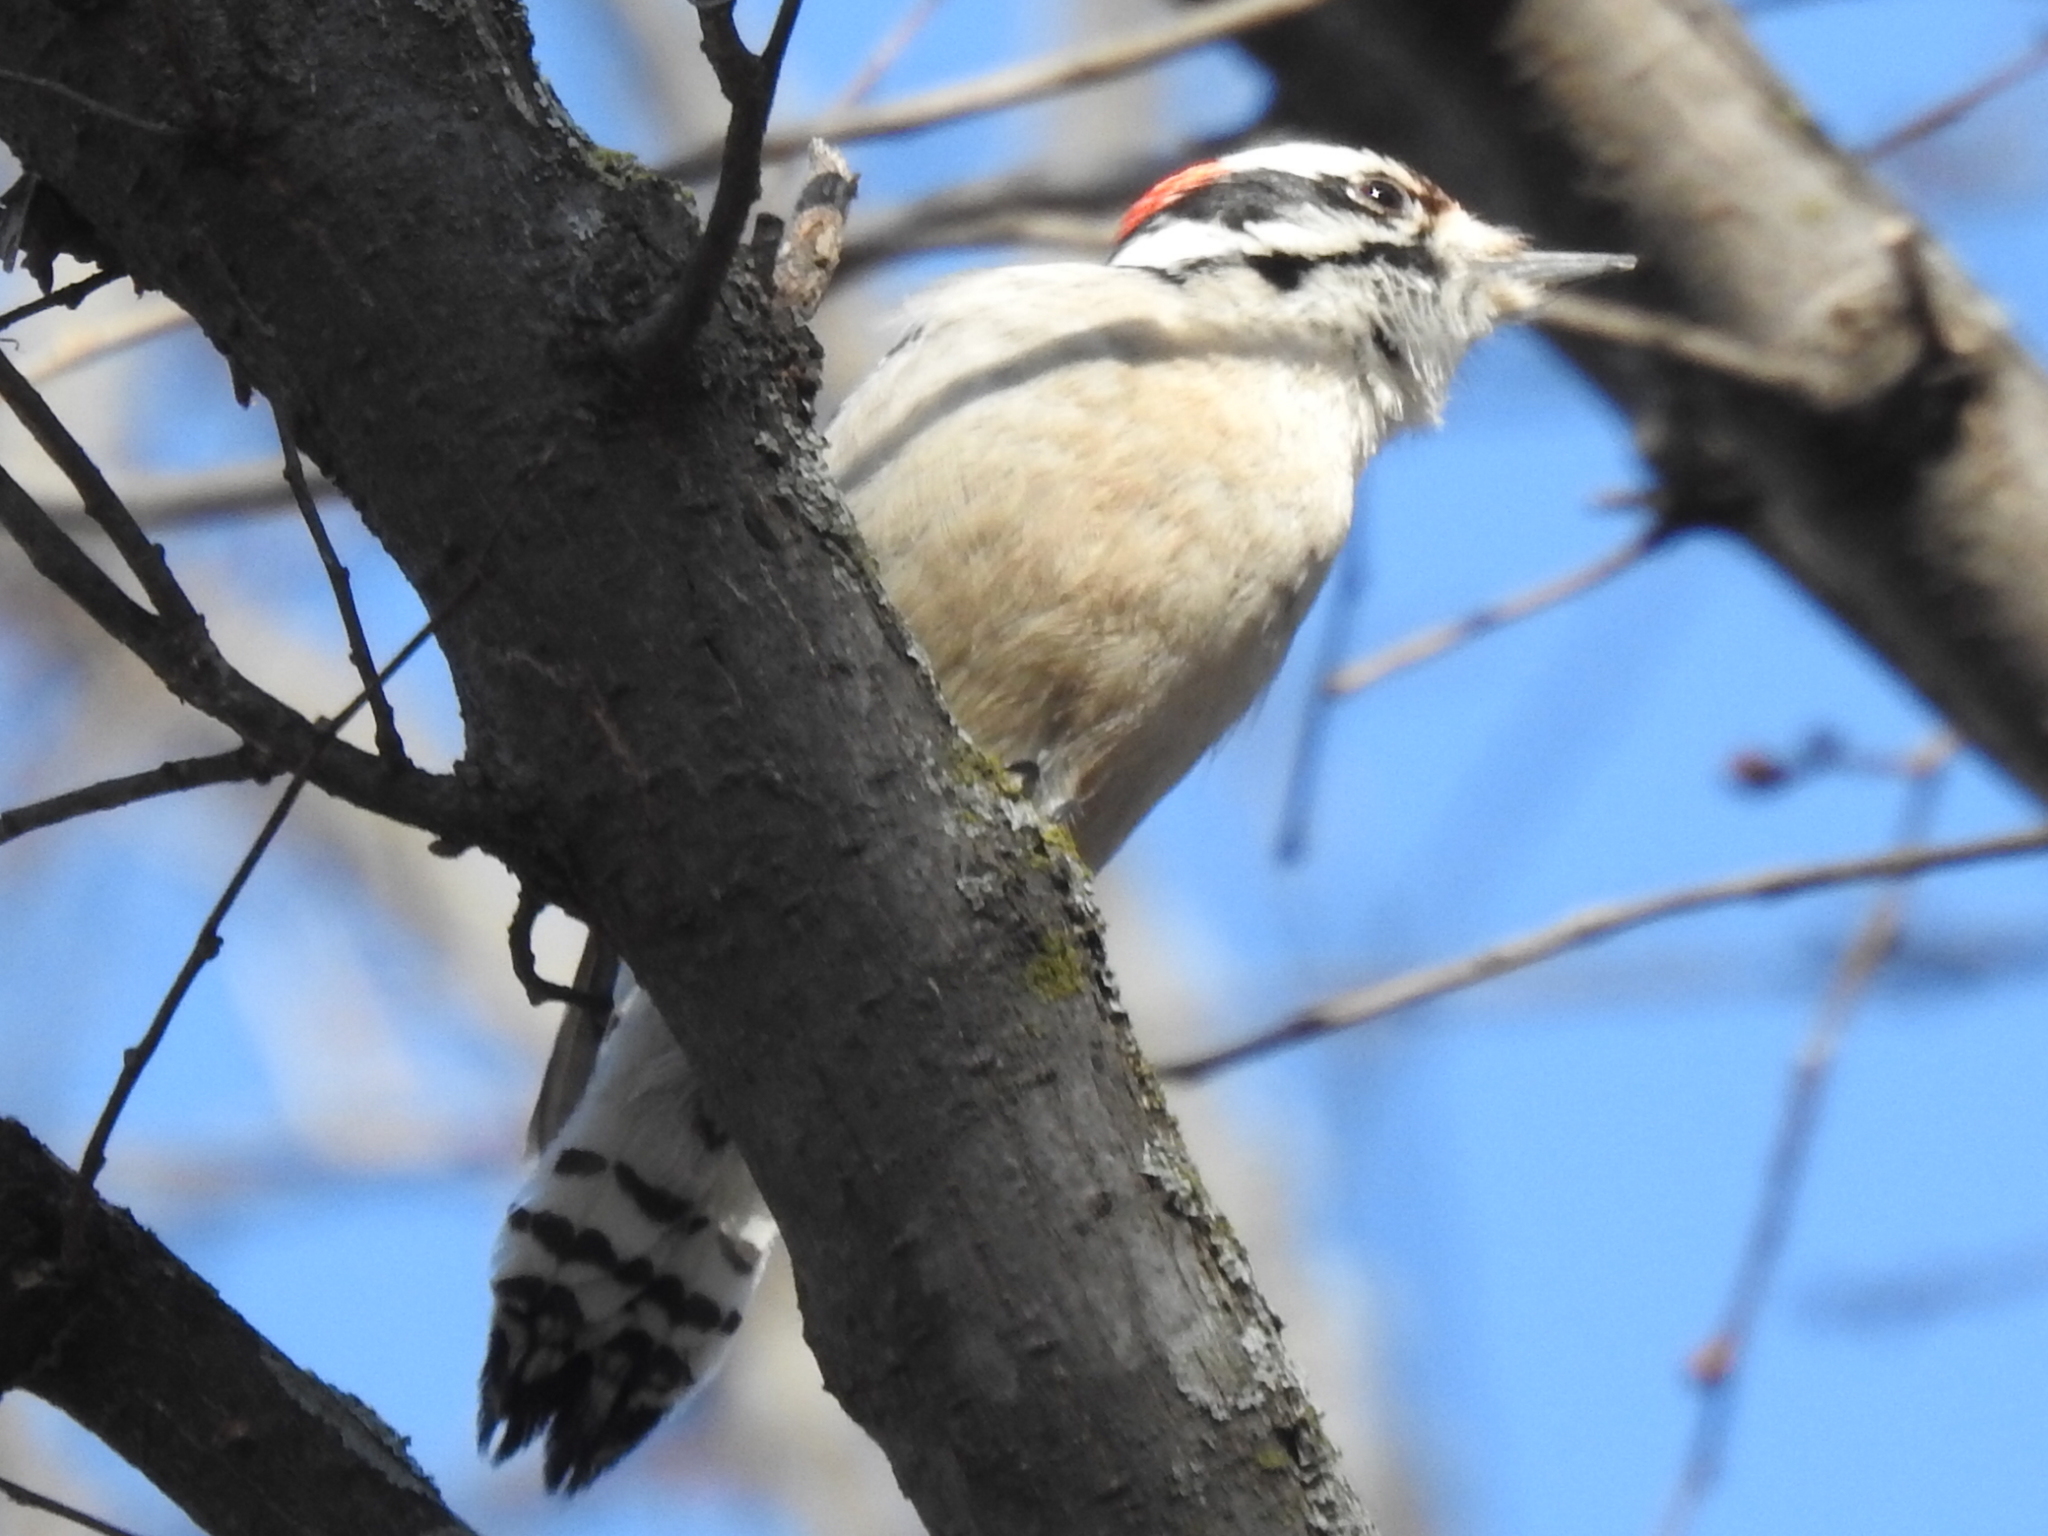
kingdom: Animalia
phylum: Chordata
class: Aves
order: Piciformes
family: Picidae
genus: Dryobates
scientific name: Dryobates pubescens
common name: Downy woodpecker
